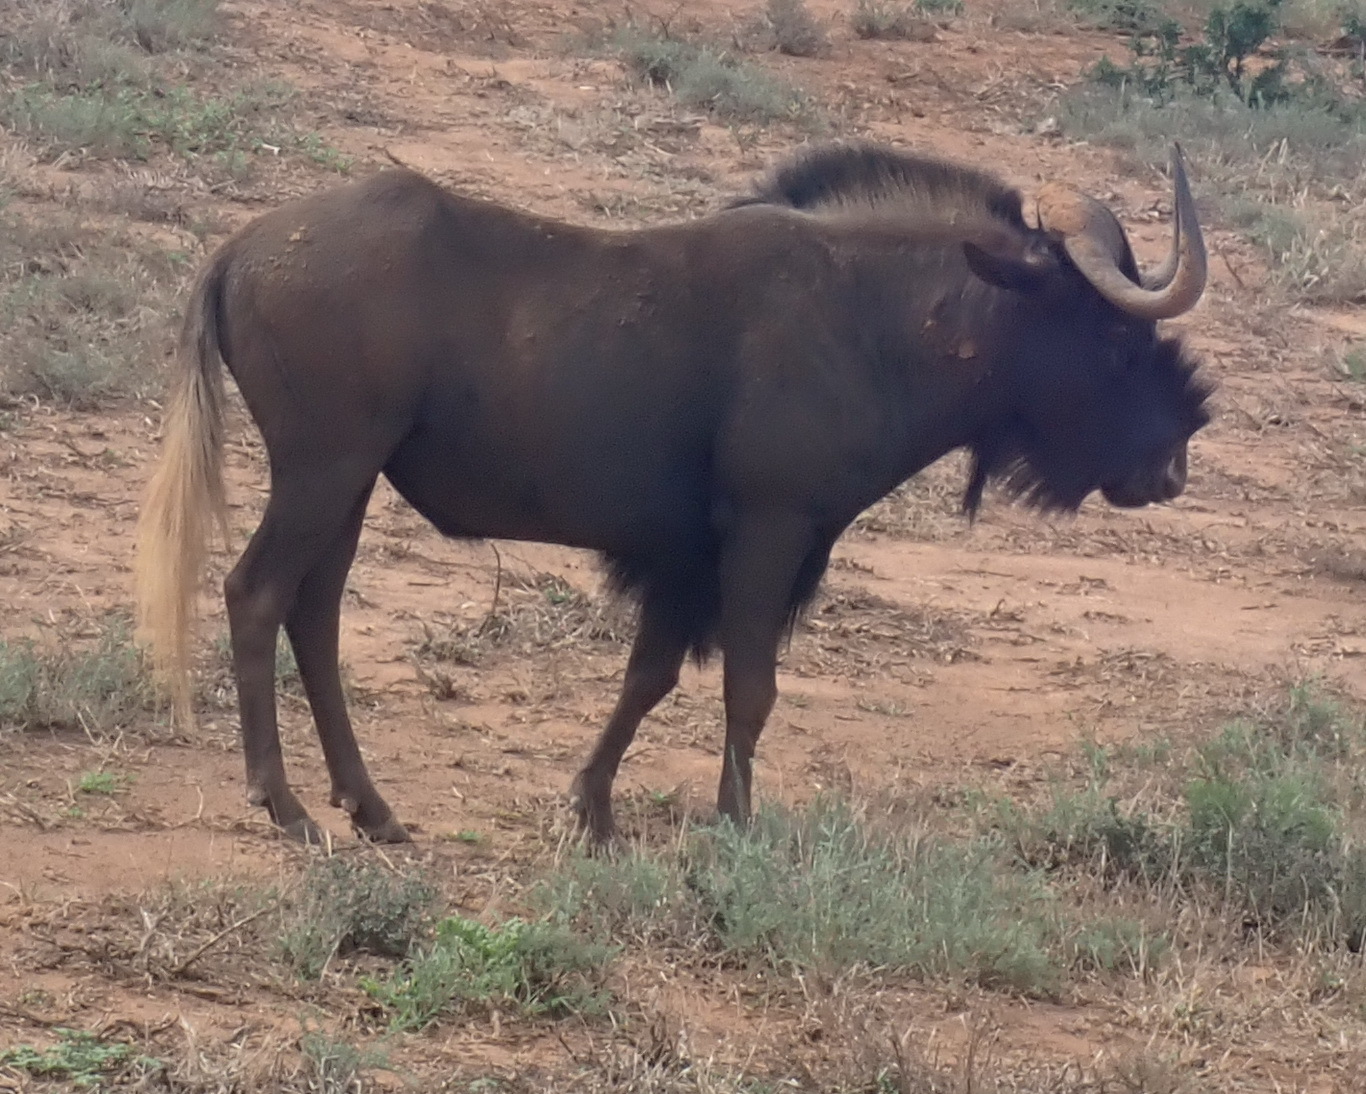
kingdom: Animalia
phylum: Chordata
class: Mammalia
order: Artiodactyla
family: Bovidae
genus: Connochaetes
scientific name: Connochaetes gnou
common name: Black wildebeest
